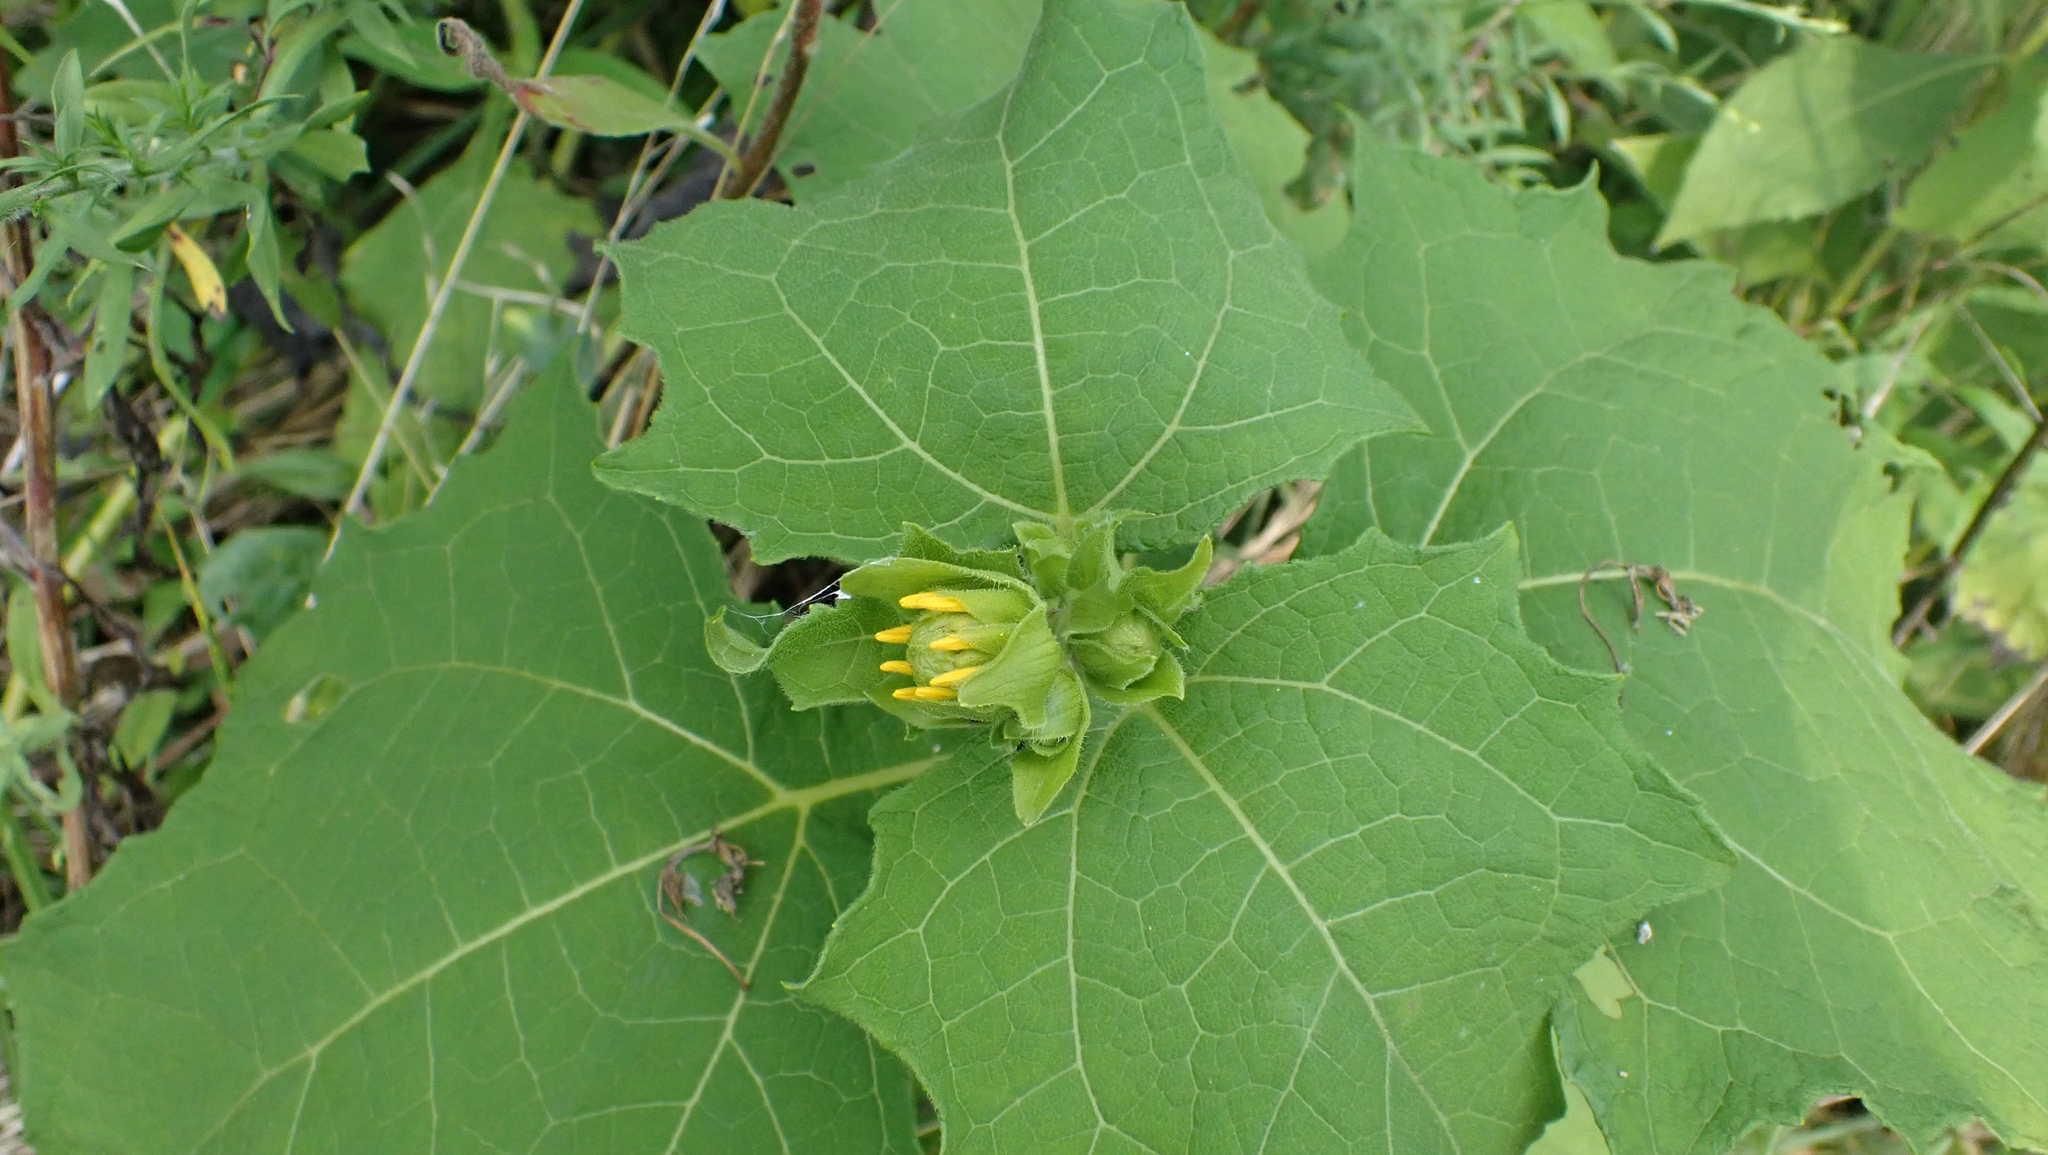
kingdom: Plantae
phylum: Tracheophyta
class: Magnoliopsida
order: Asterales
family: Asteraceae
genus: Smallanthus
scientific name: Smallanthus uvedalia
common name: Bear's-foot
